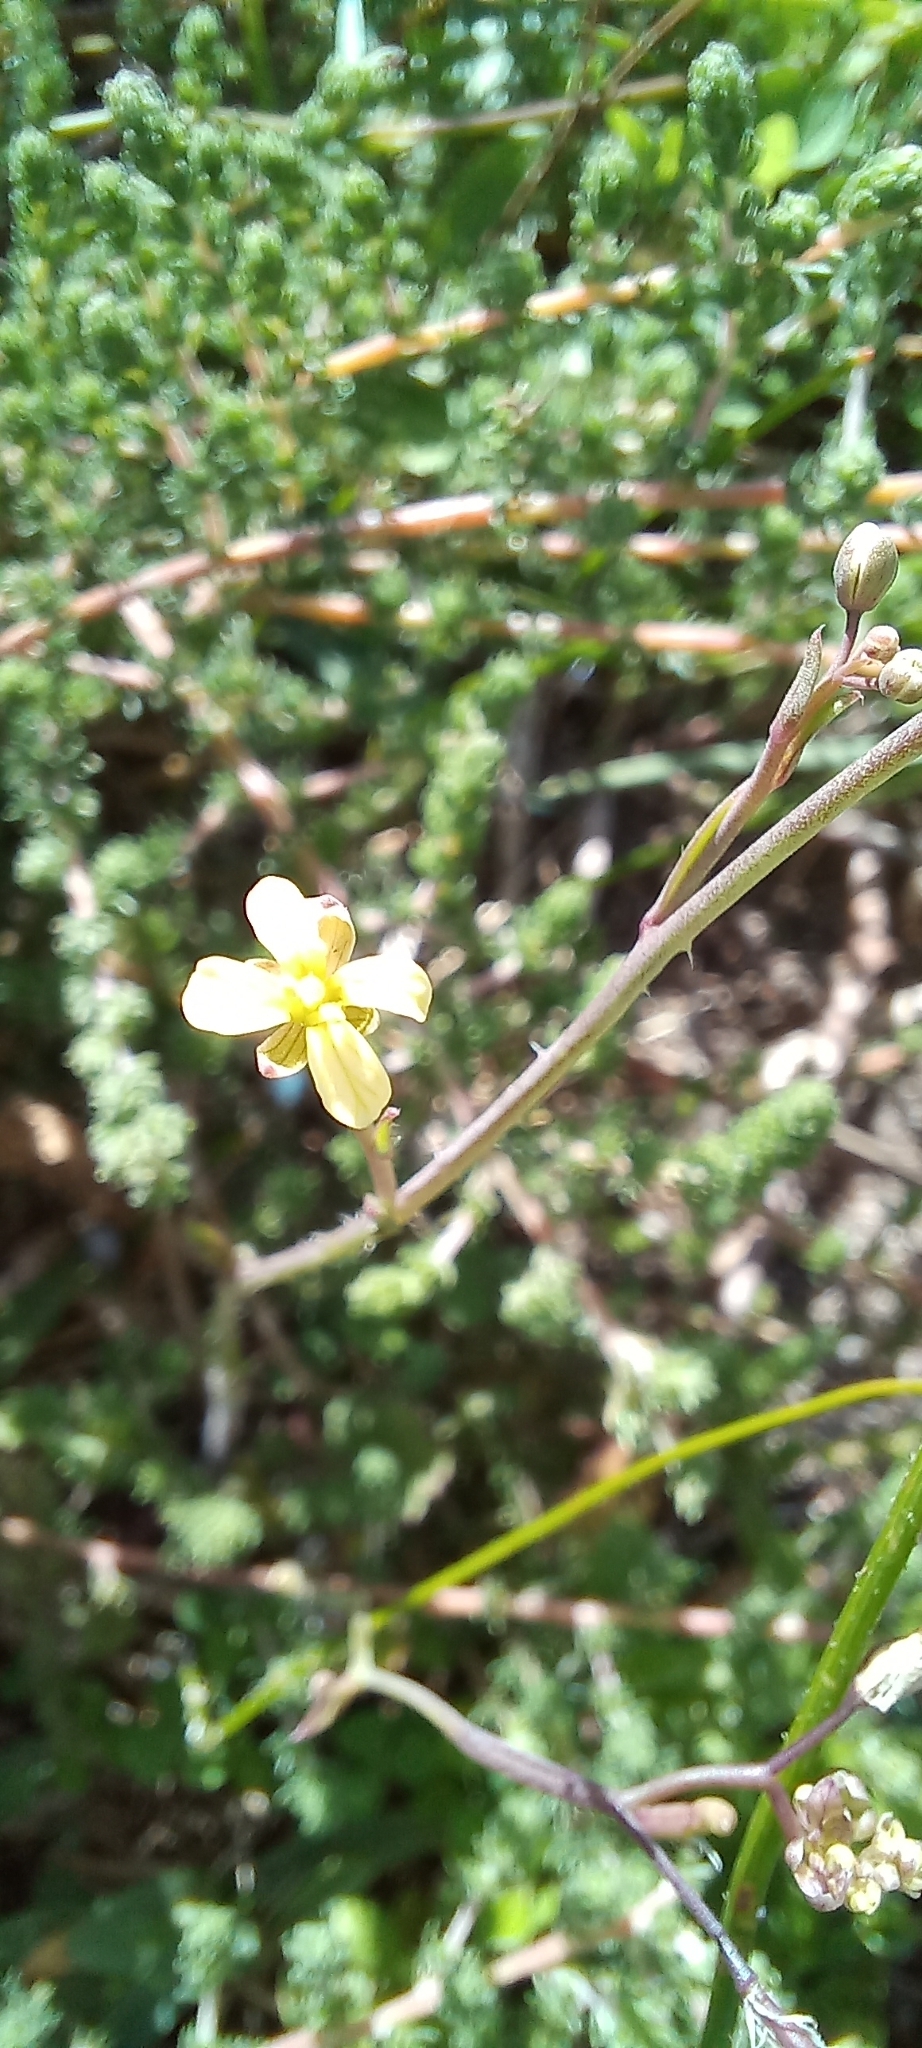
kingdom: Plantae
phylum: Tracheophyta
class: Magnoliopsida
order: Brassicales
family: Brassicaceae
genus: Brassica
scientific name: Brassica tournefortii
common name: Pale cabbage
